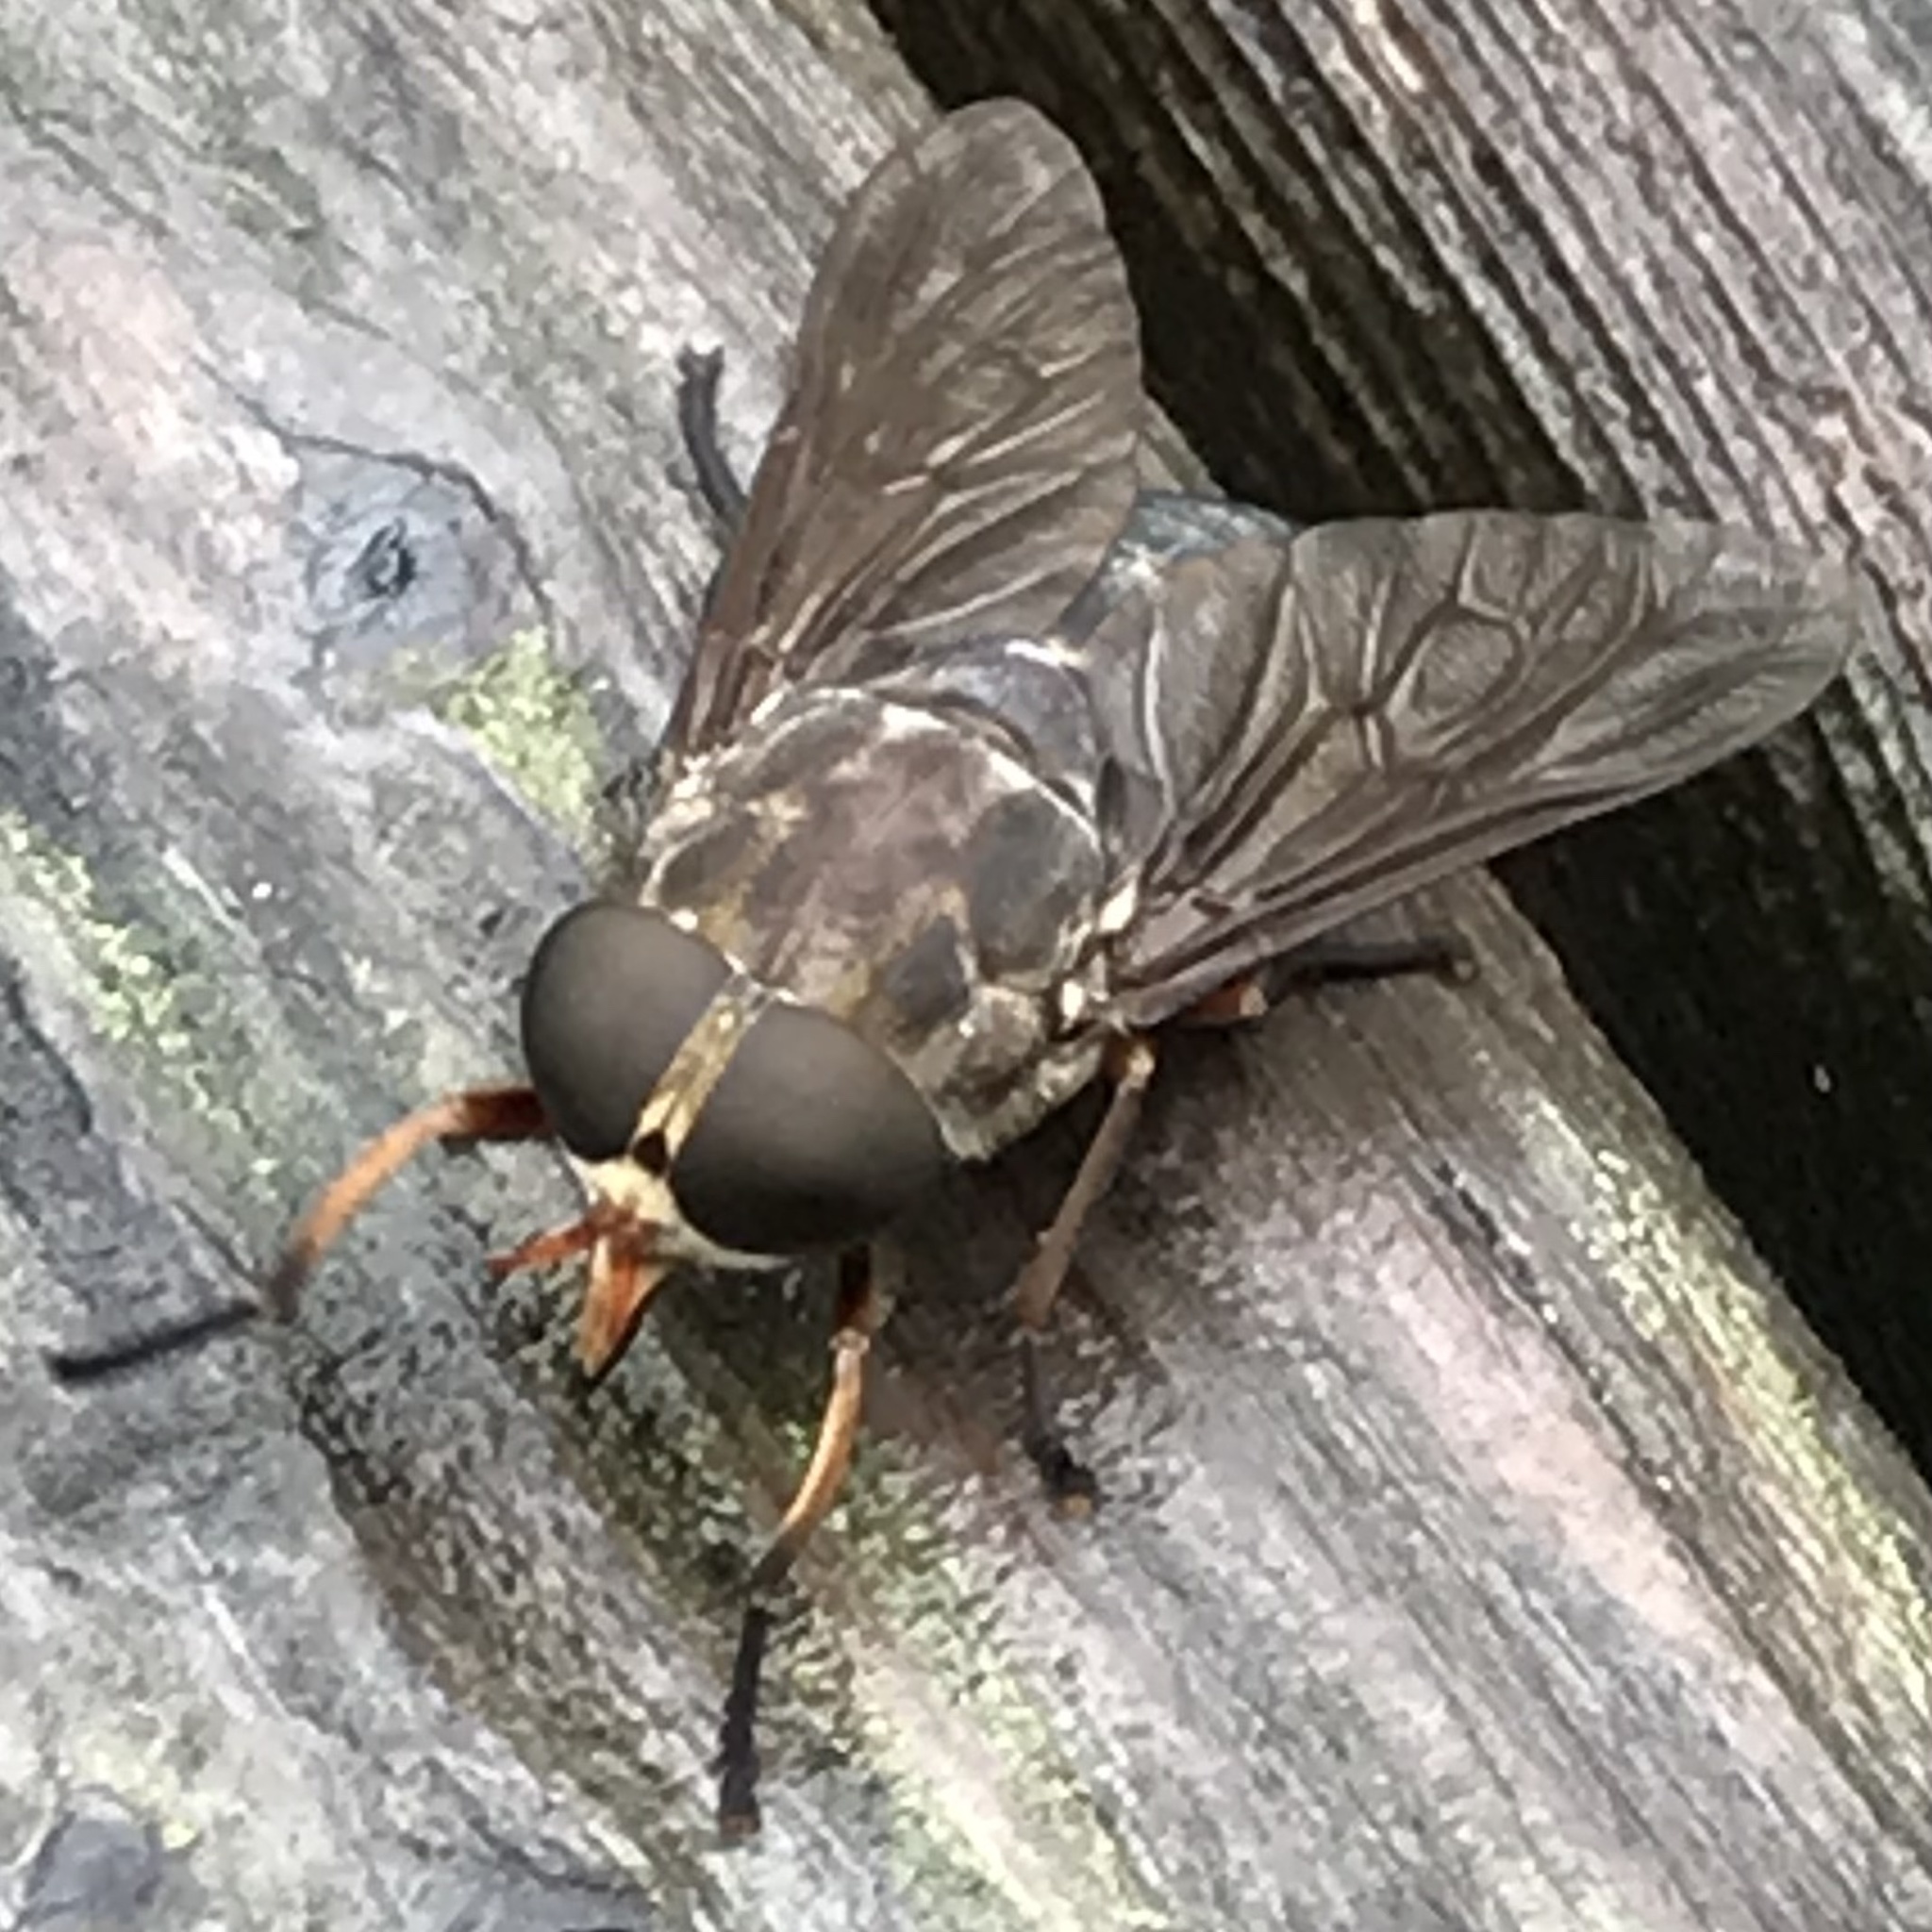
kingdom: Animalia
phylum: Arthropoda
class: Insecta
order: Diptera
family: Tabanidae
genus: Tabanus
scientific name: Tabanus calens
